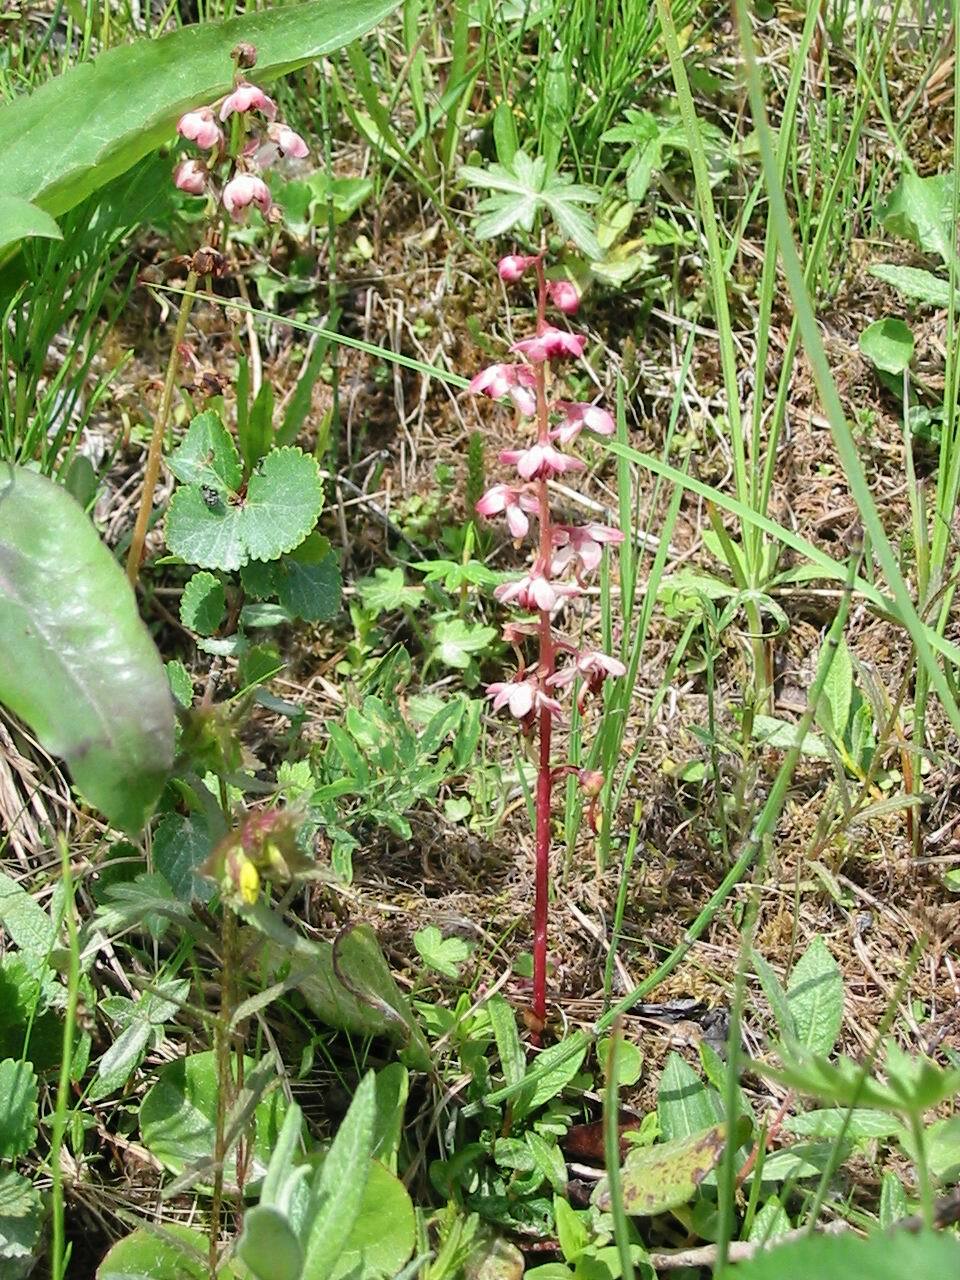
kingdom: Plantae
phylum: Tracheophyta
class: Magnoliopsida
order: Ericales
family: Ericaceae
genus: Pyrola
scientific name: Pyrola asarifolia
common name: Bog wintergreen
